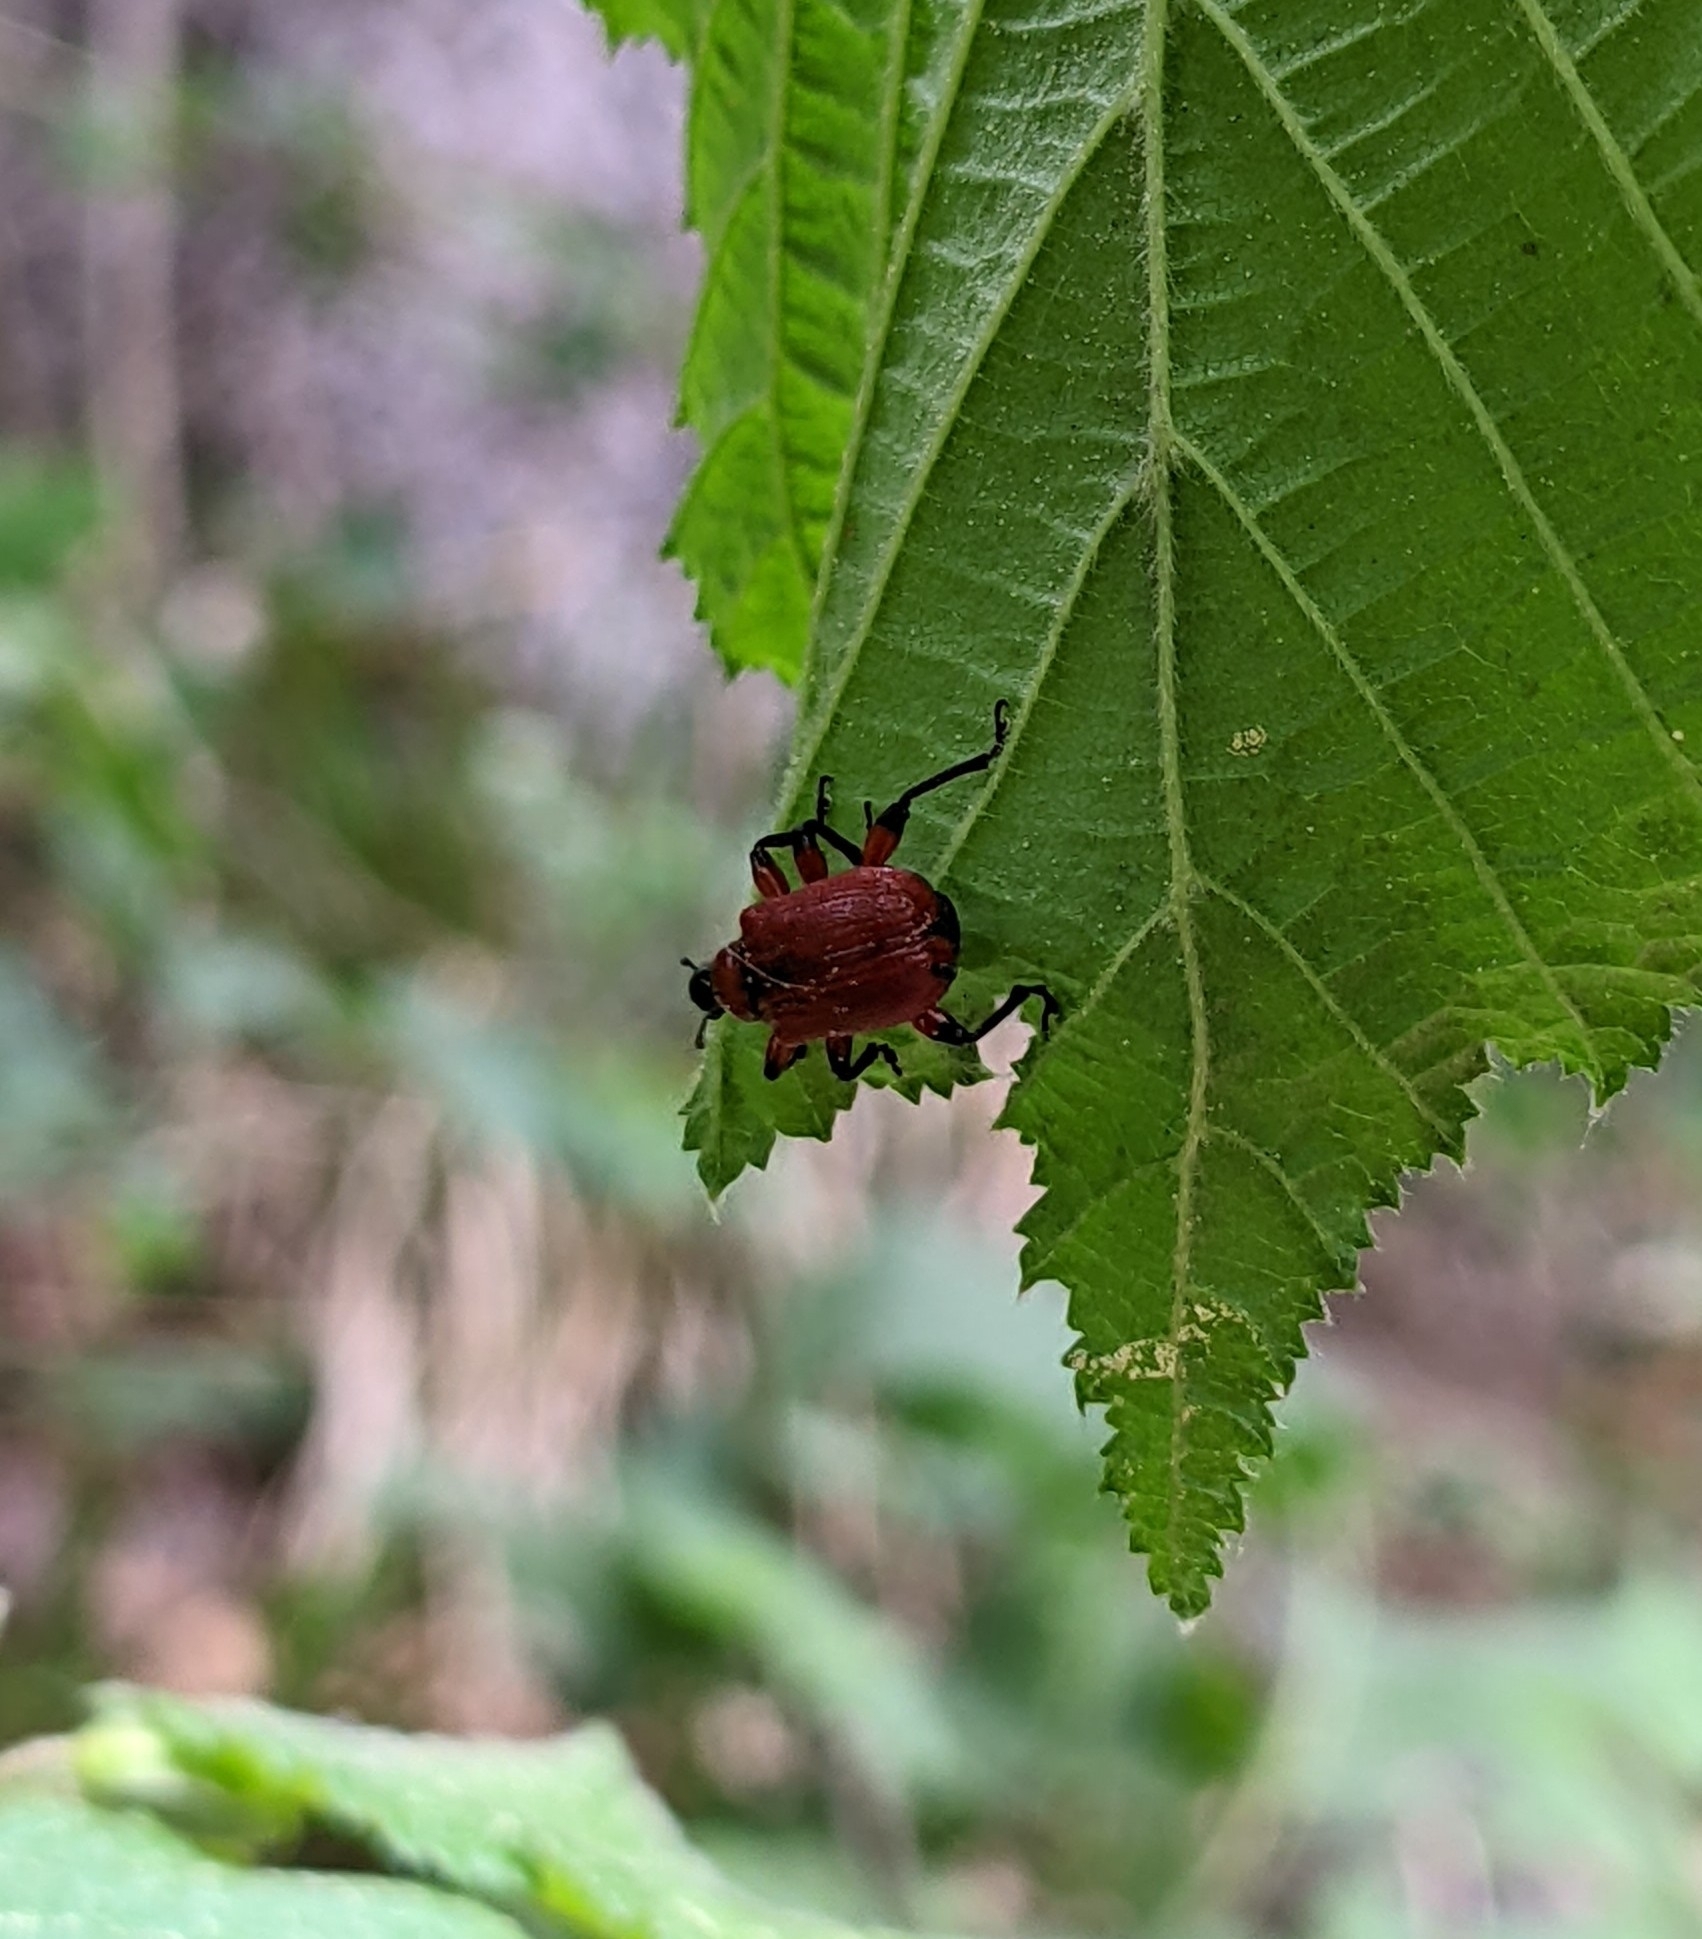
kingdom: Animalia
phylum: Arthropoda
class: Insecta
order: Coleoptera
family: Attelabidae
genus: Apoderus
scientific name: Apoderus coryli
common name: Hazel leaf roller
